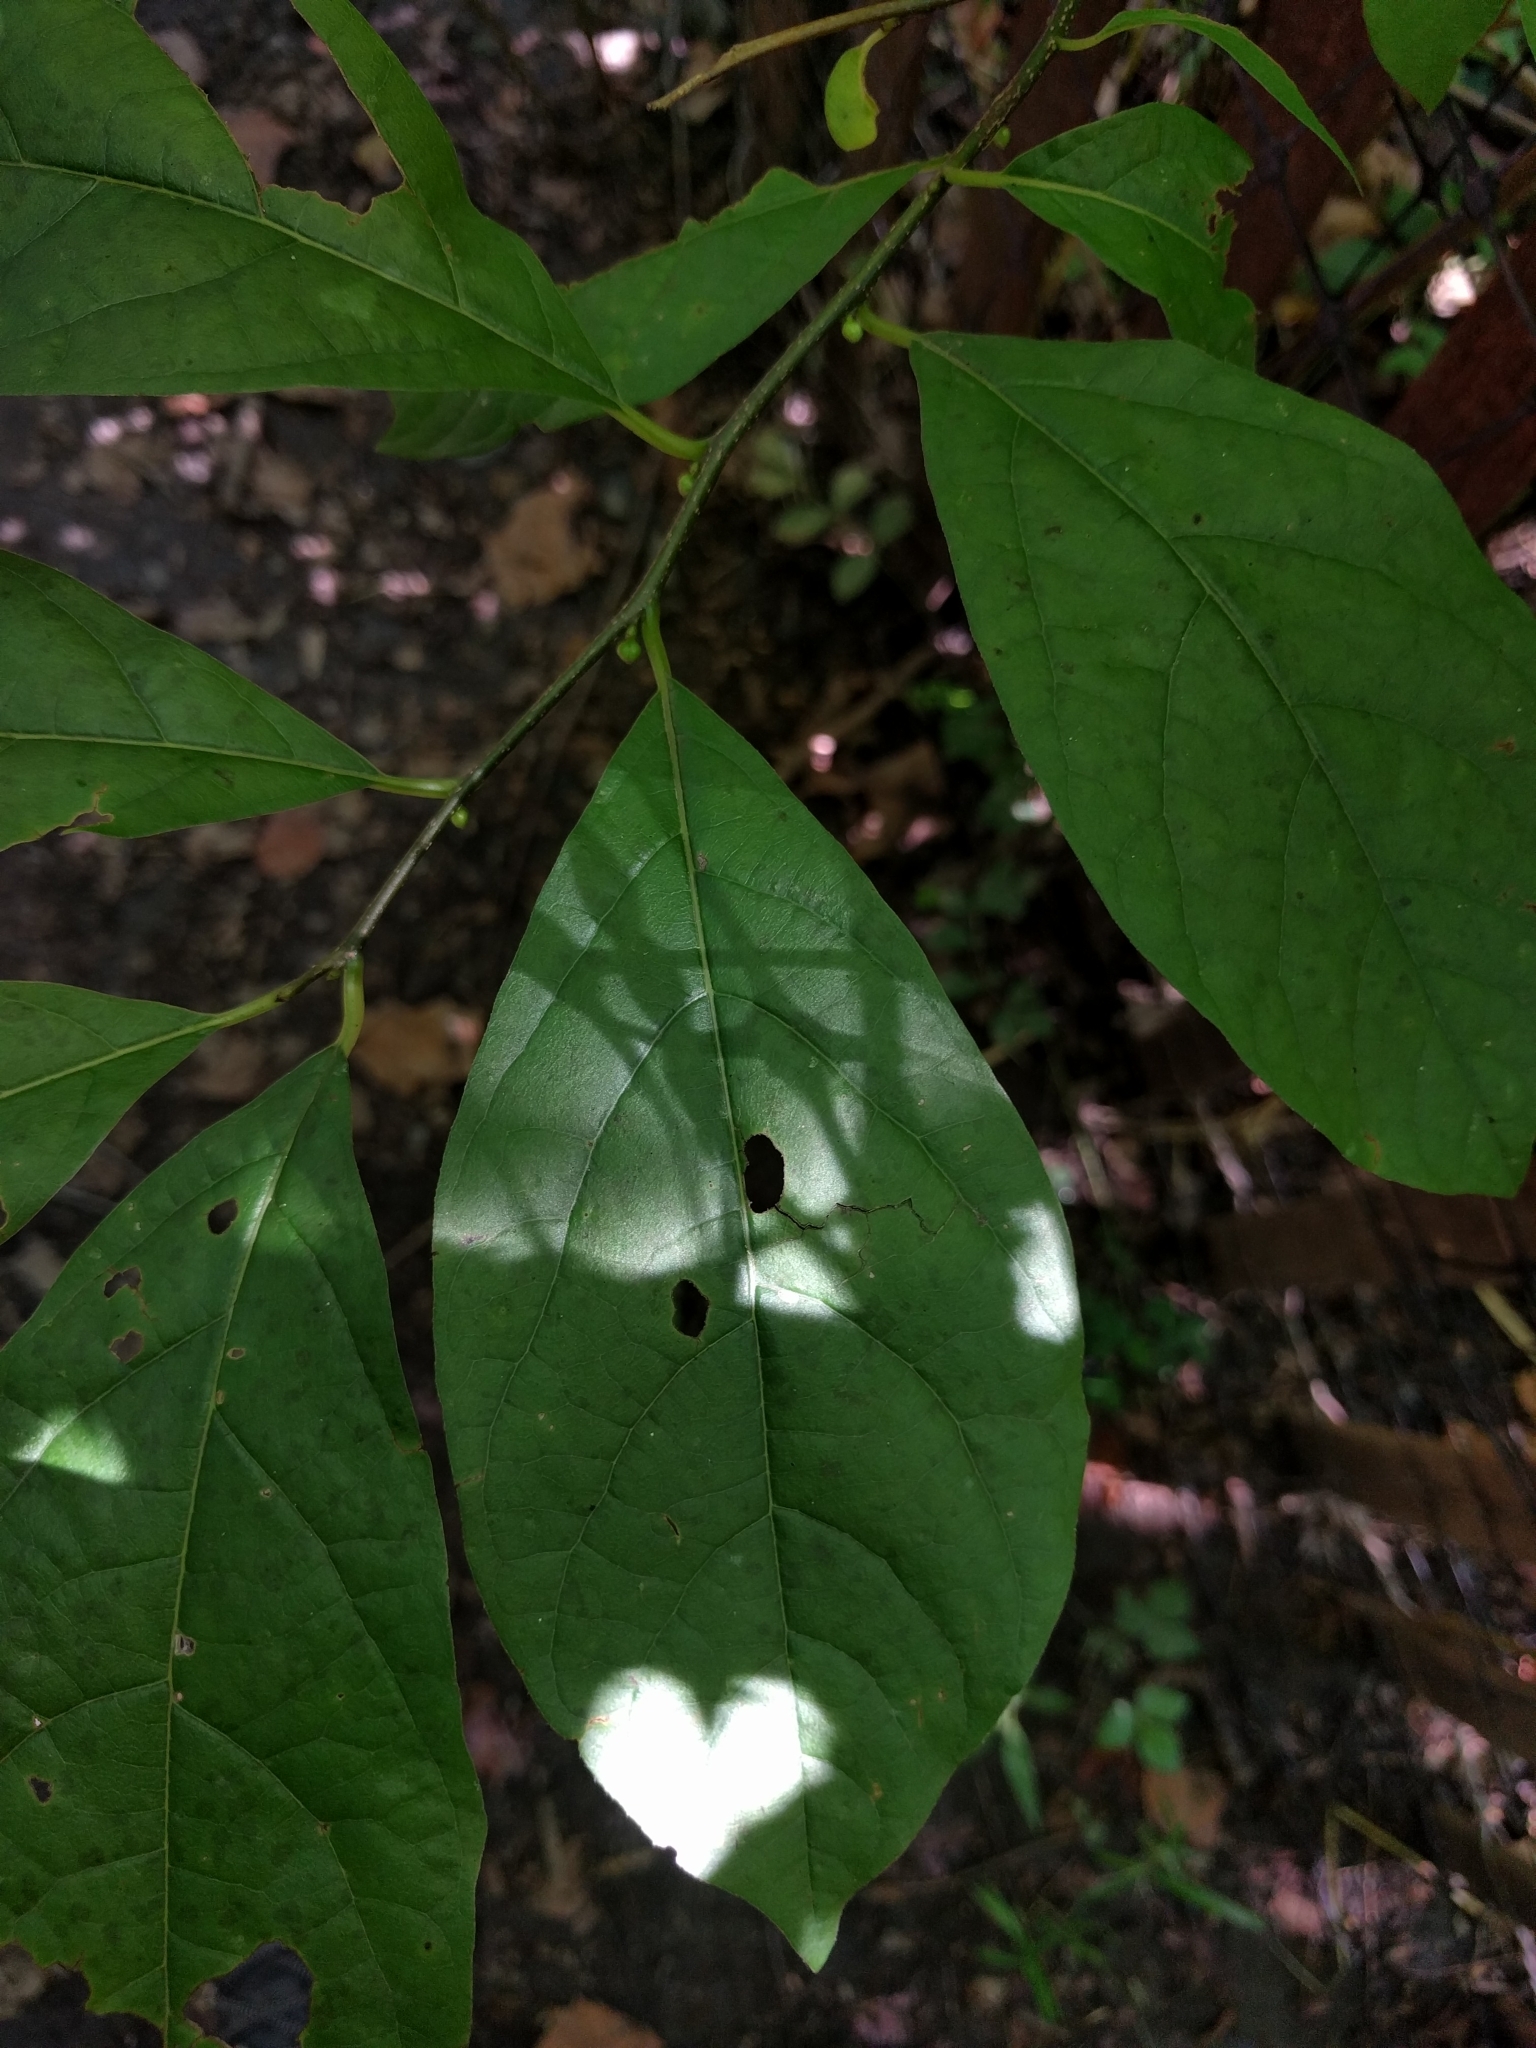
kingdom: Plantae
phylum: Tracheophyta
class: Magnoliopsida
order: Laurales
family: Lauraceae
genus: Lindera
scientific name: Lindera benzoin
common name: Spicebush
